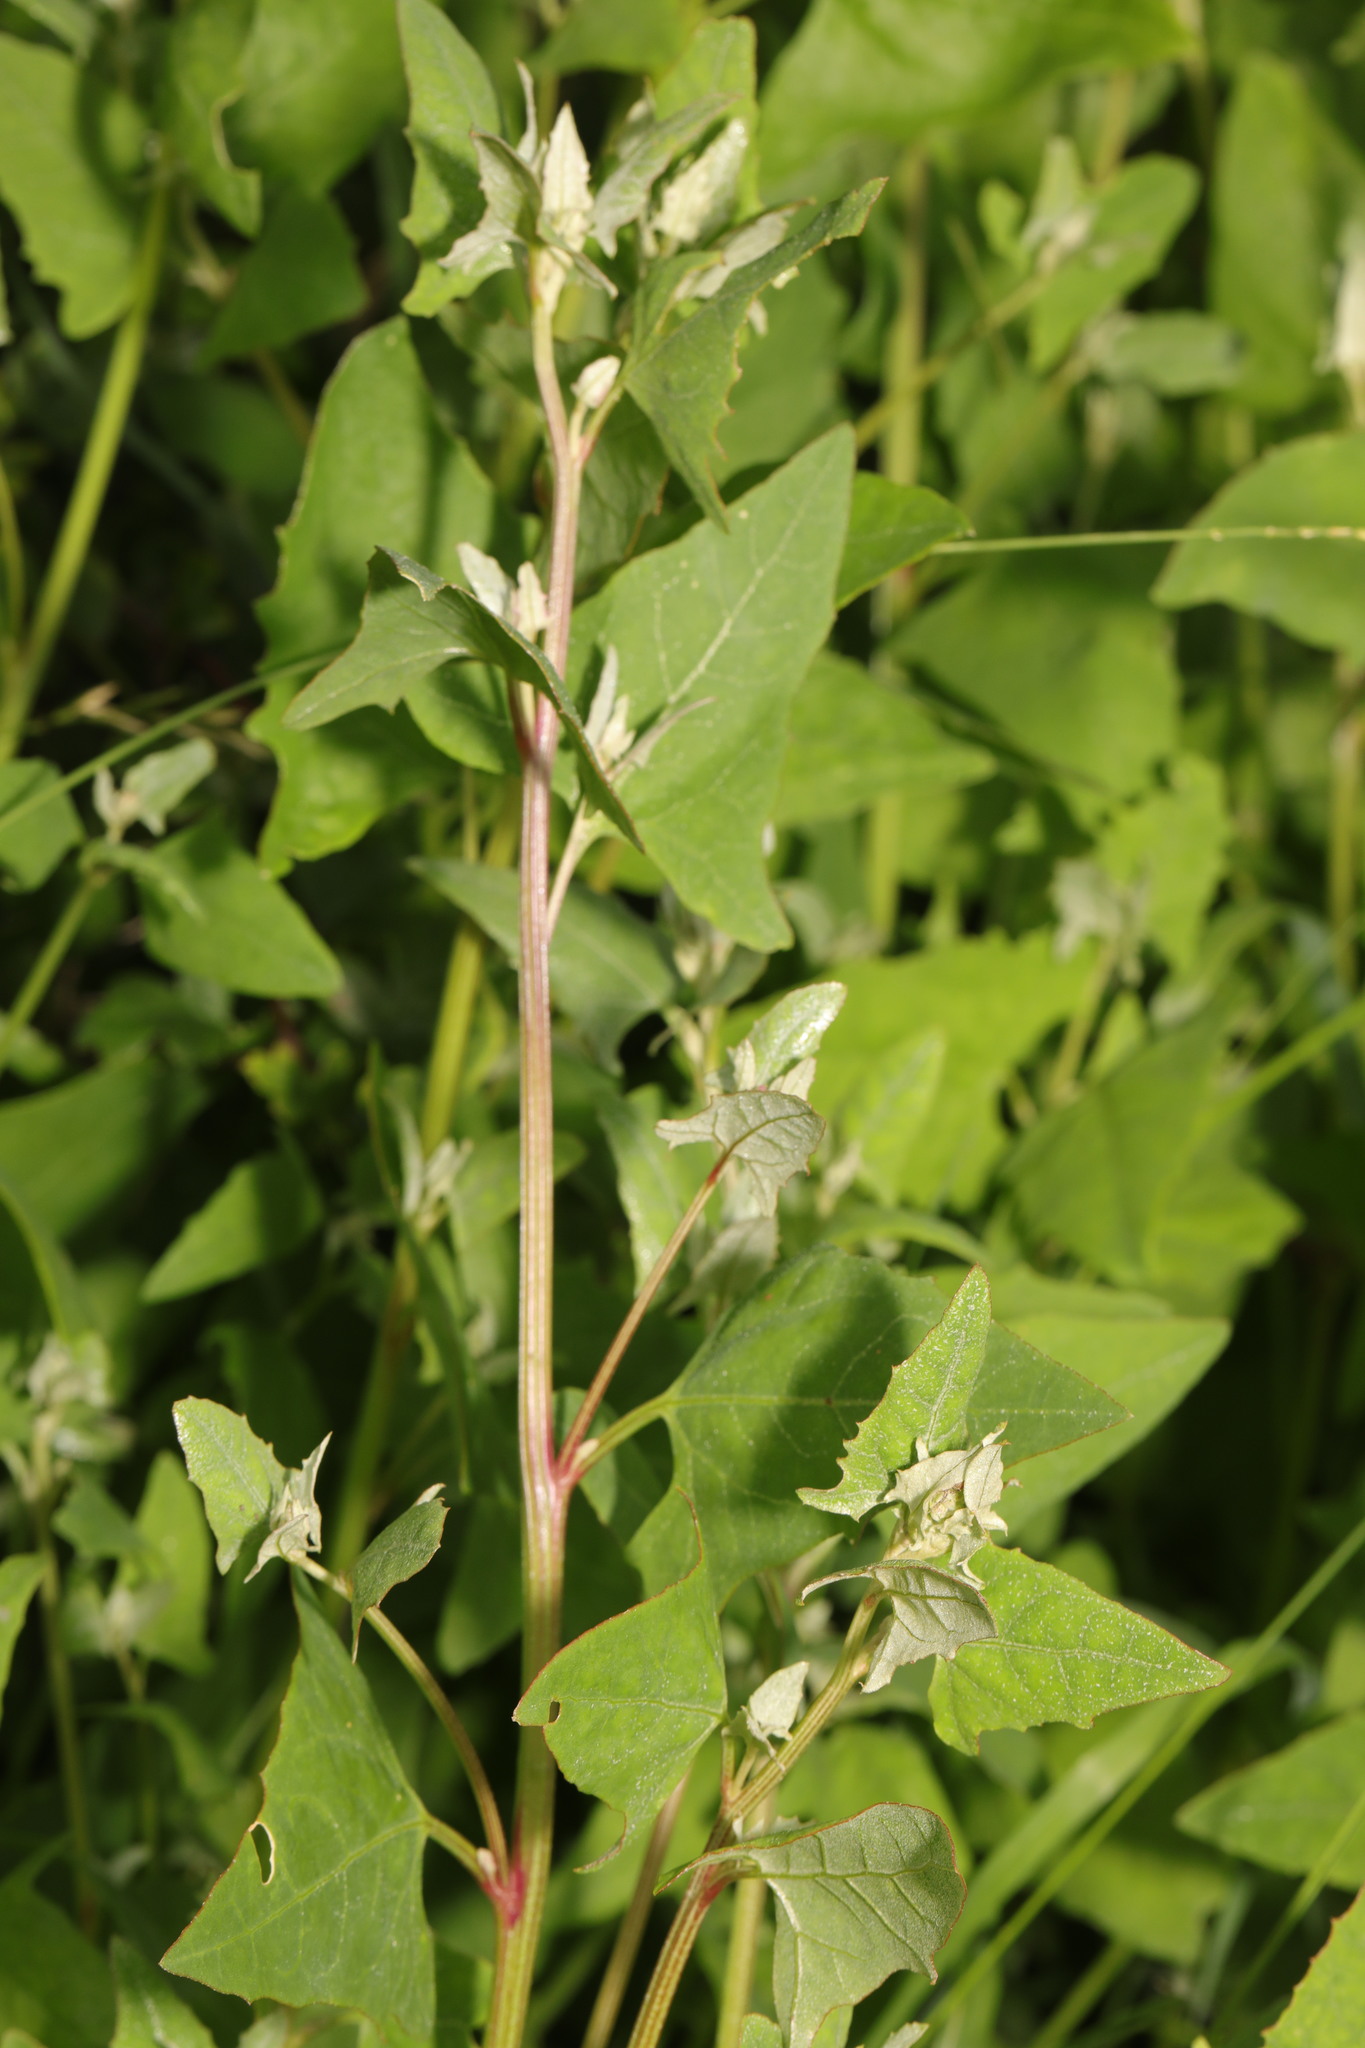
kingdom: Plantae
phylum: Tracheophyta
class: Magnoliopsida
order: Caryophyllales
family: Amaranthaceae
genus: Atriplex
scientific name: Atriplex prostrata
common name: Spear-leaved orache
